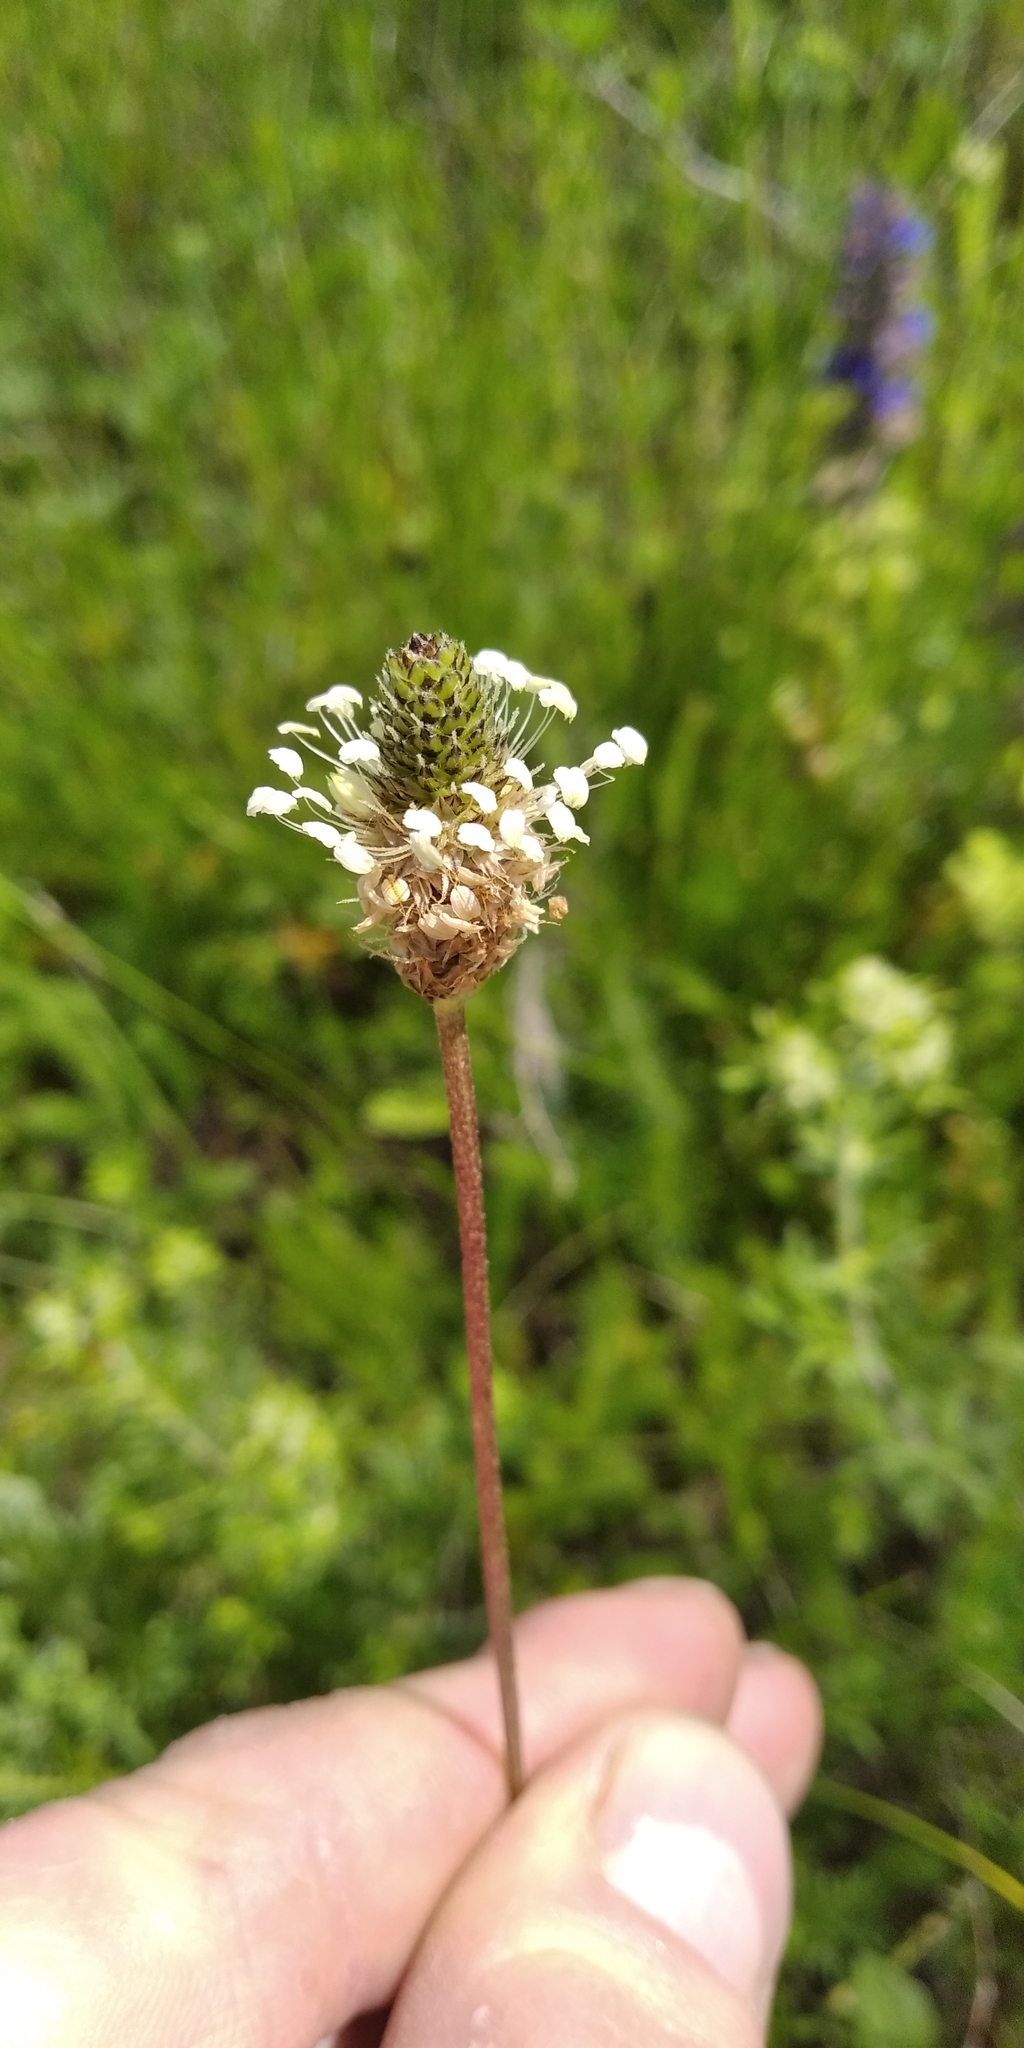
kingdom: Plantae
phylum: Tracheophyta
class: Magnoliopsida
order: Lamiales
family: Plantaginaceae
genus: Plantago
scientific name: Plantago lanceolata
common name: Ribwort plantain
